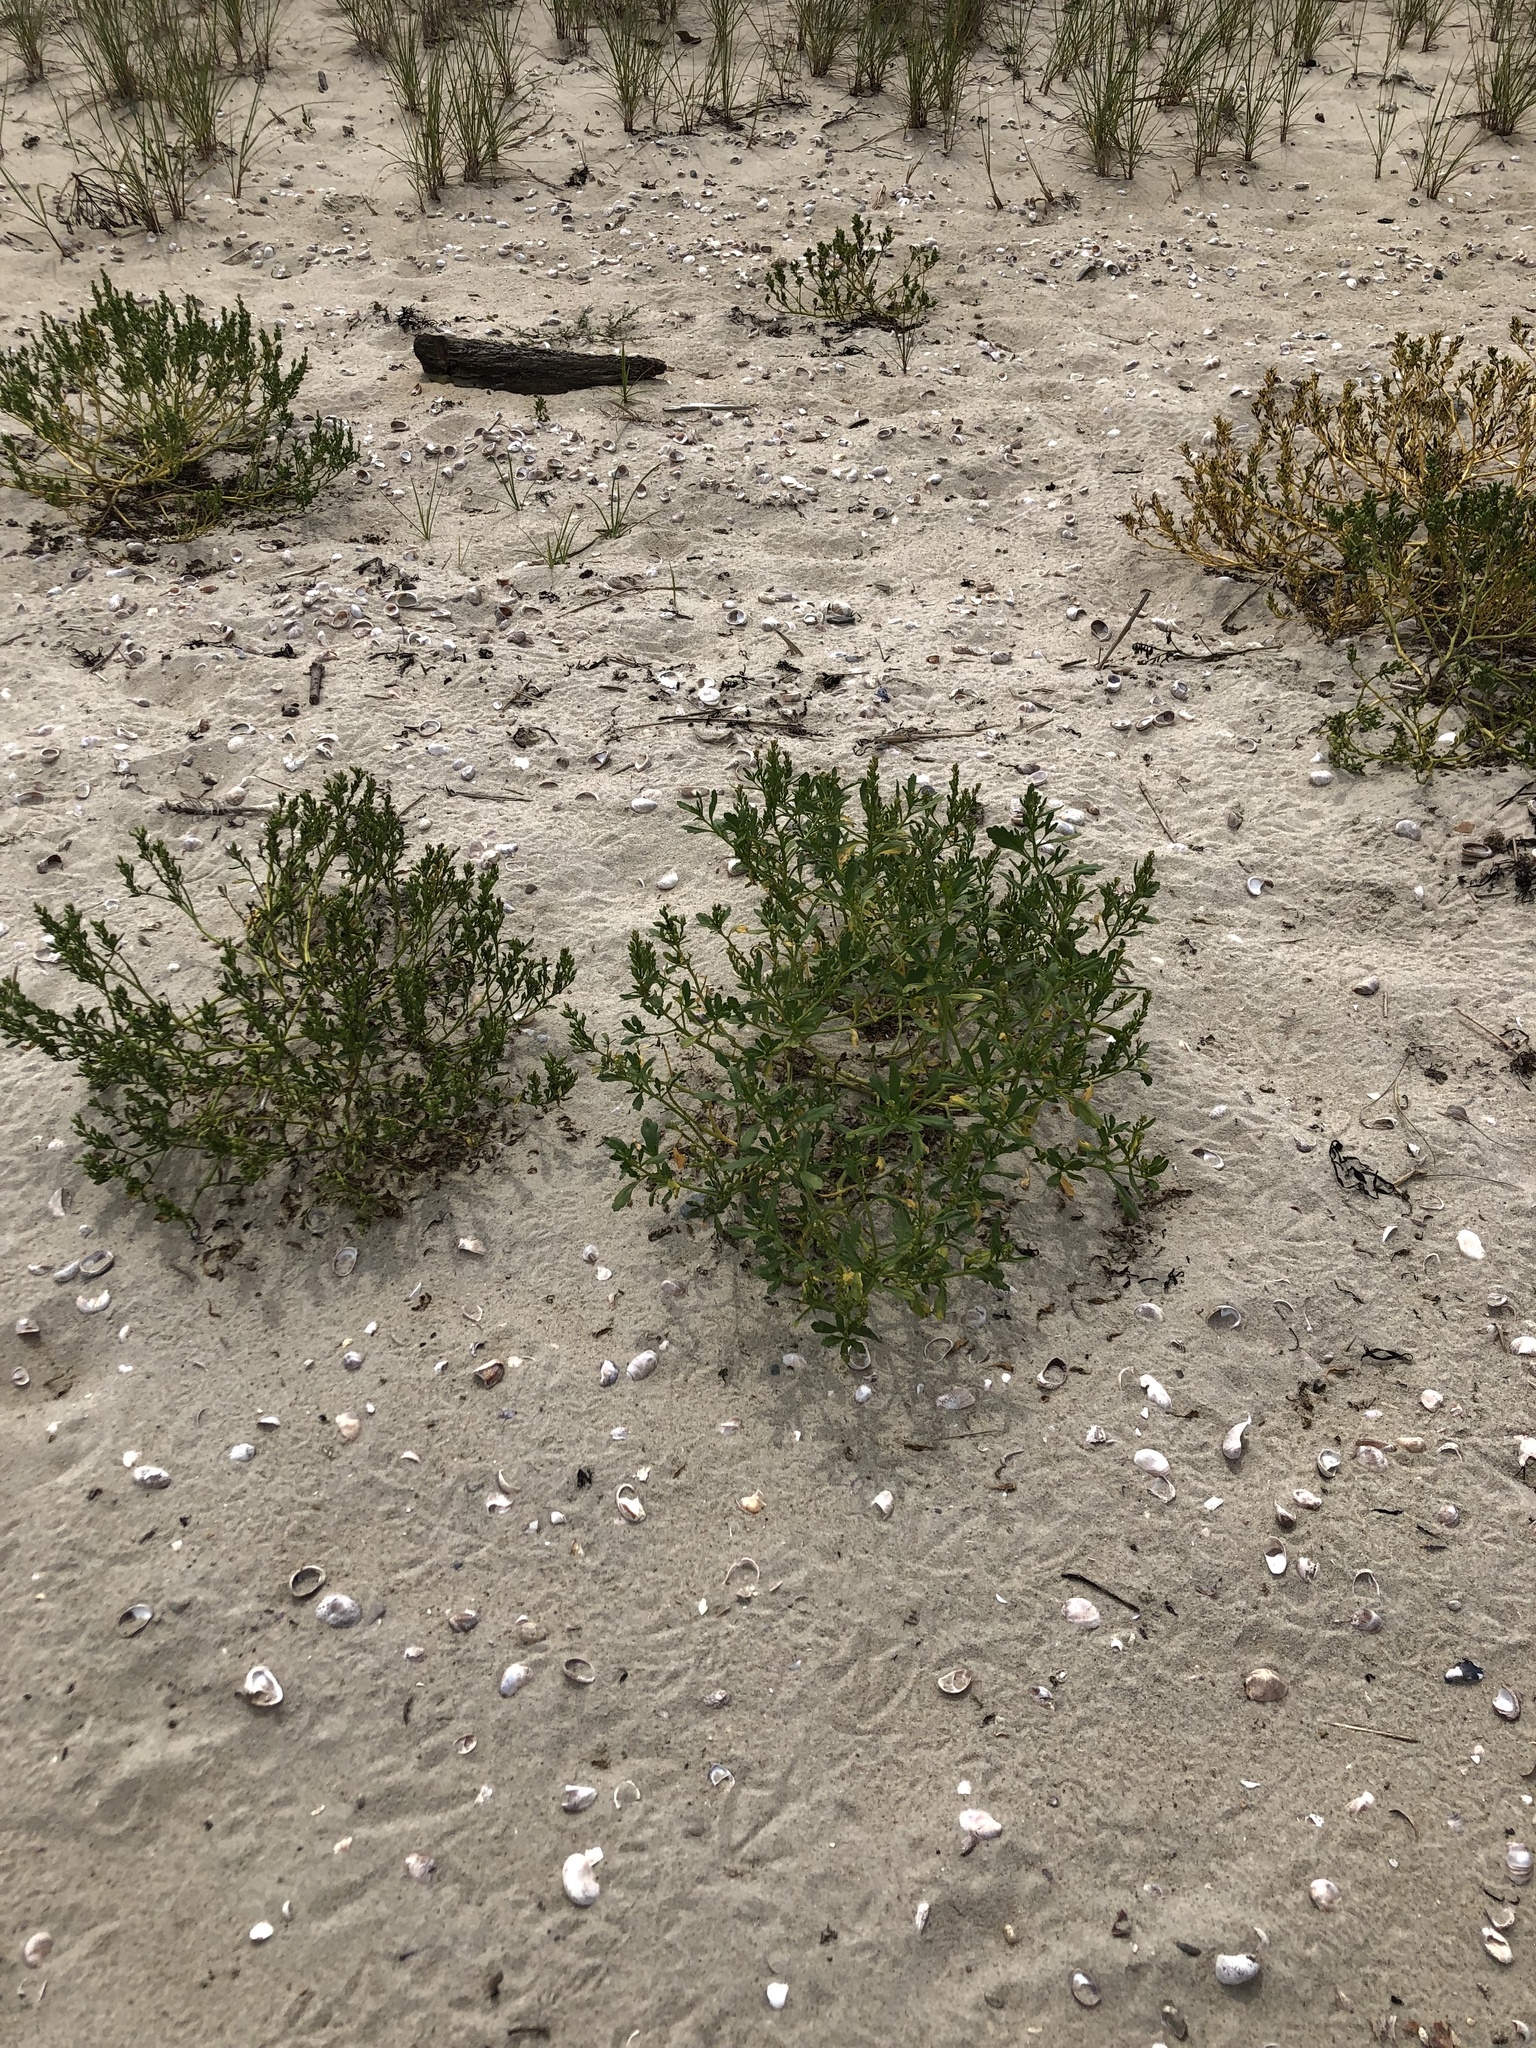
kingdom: Plantae
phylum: Tracheophyta
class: Magnoliopsida
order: Brassicales
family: Brassicaceae
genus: Cakile
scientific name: Cakile edentula
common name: American sea rocket
